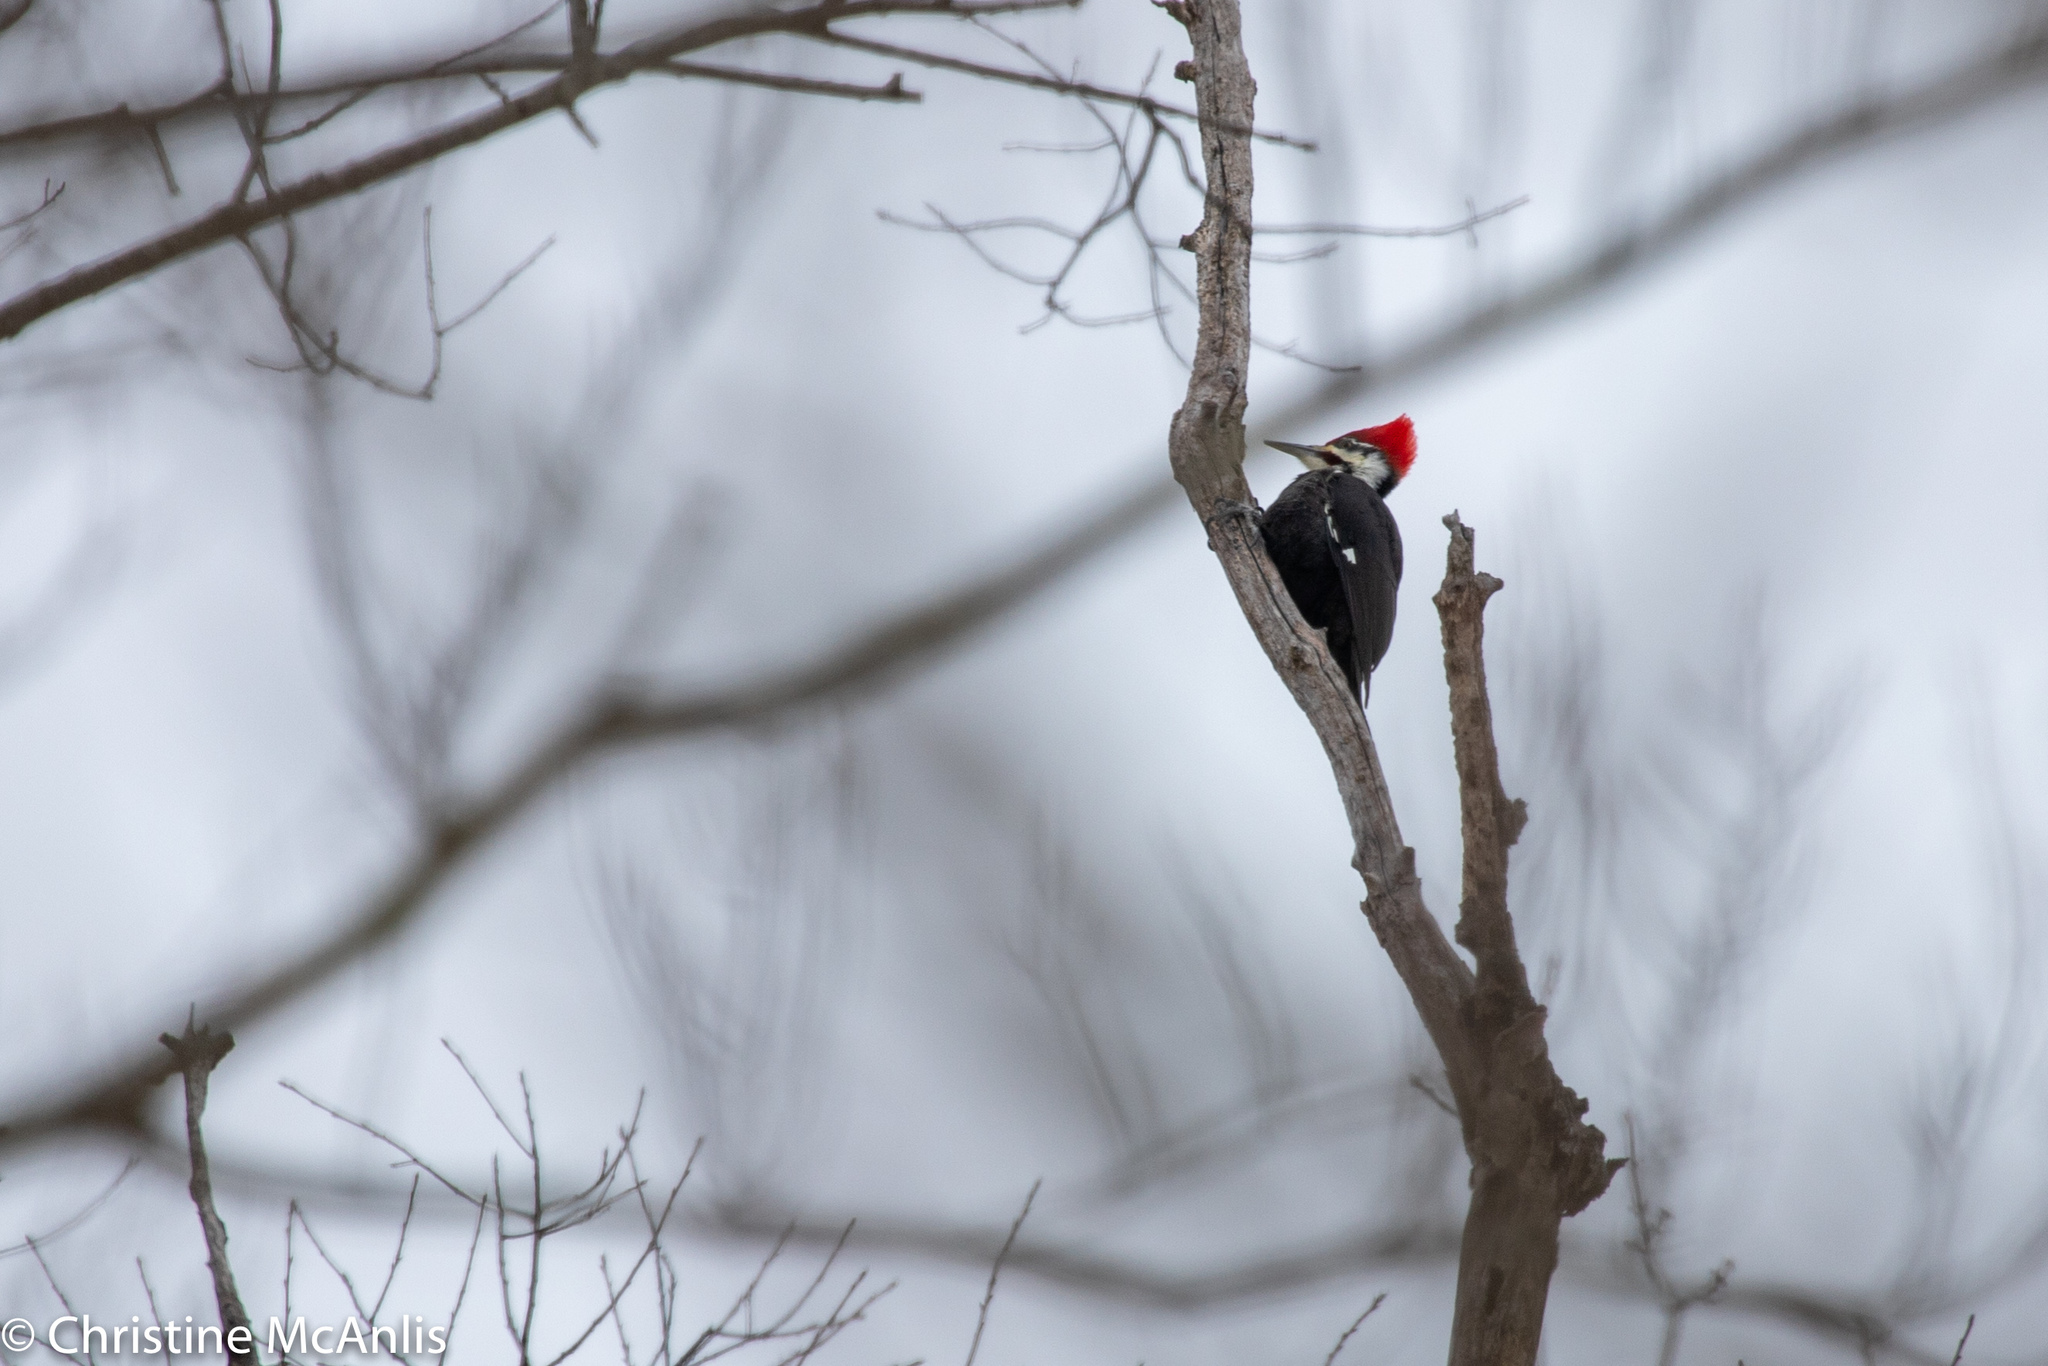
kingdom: Animalia
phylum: Chordata
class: Aves
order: Piciformes
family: Picidae
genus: Dryocopus
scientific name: Dryocopus pileatus
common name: Pileated woodpecker
